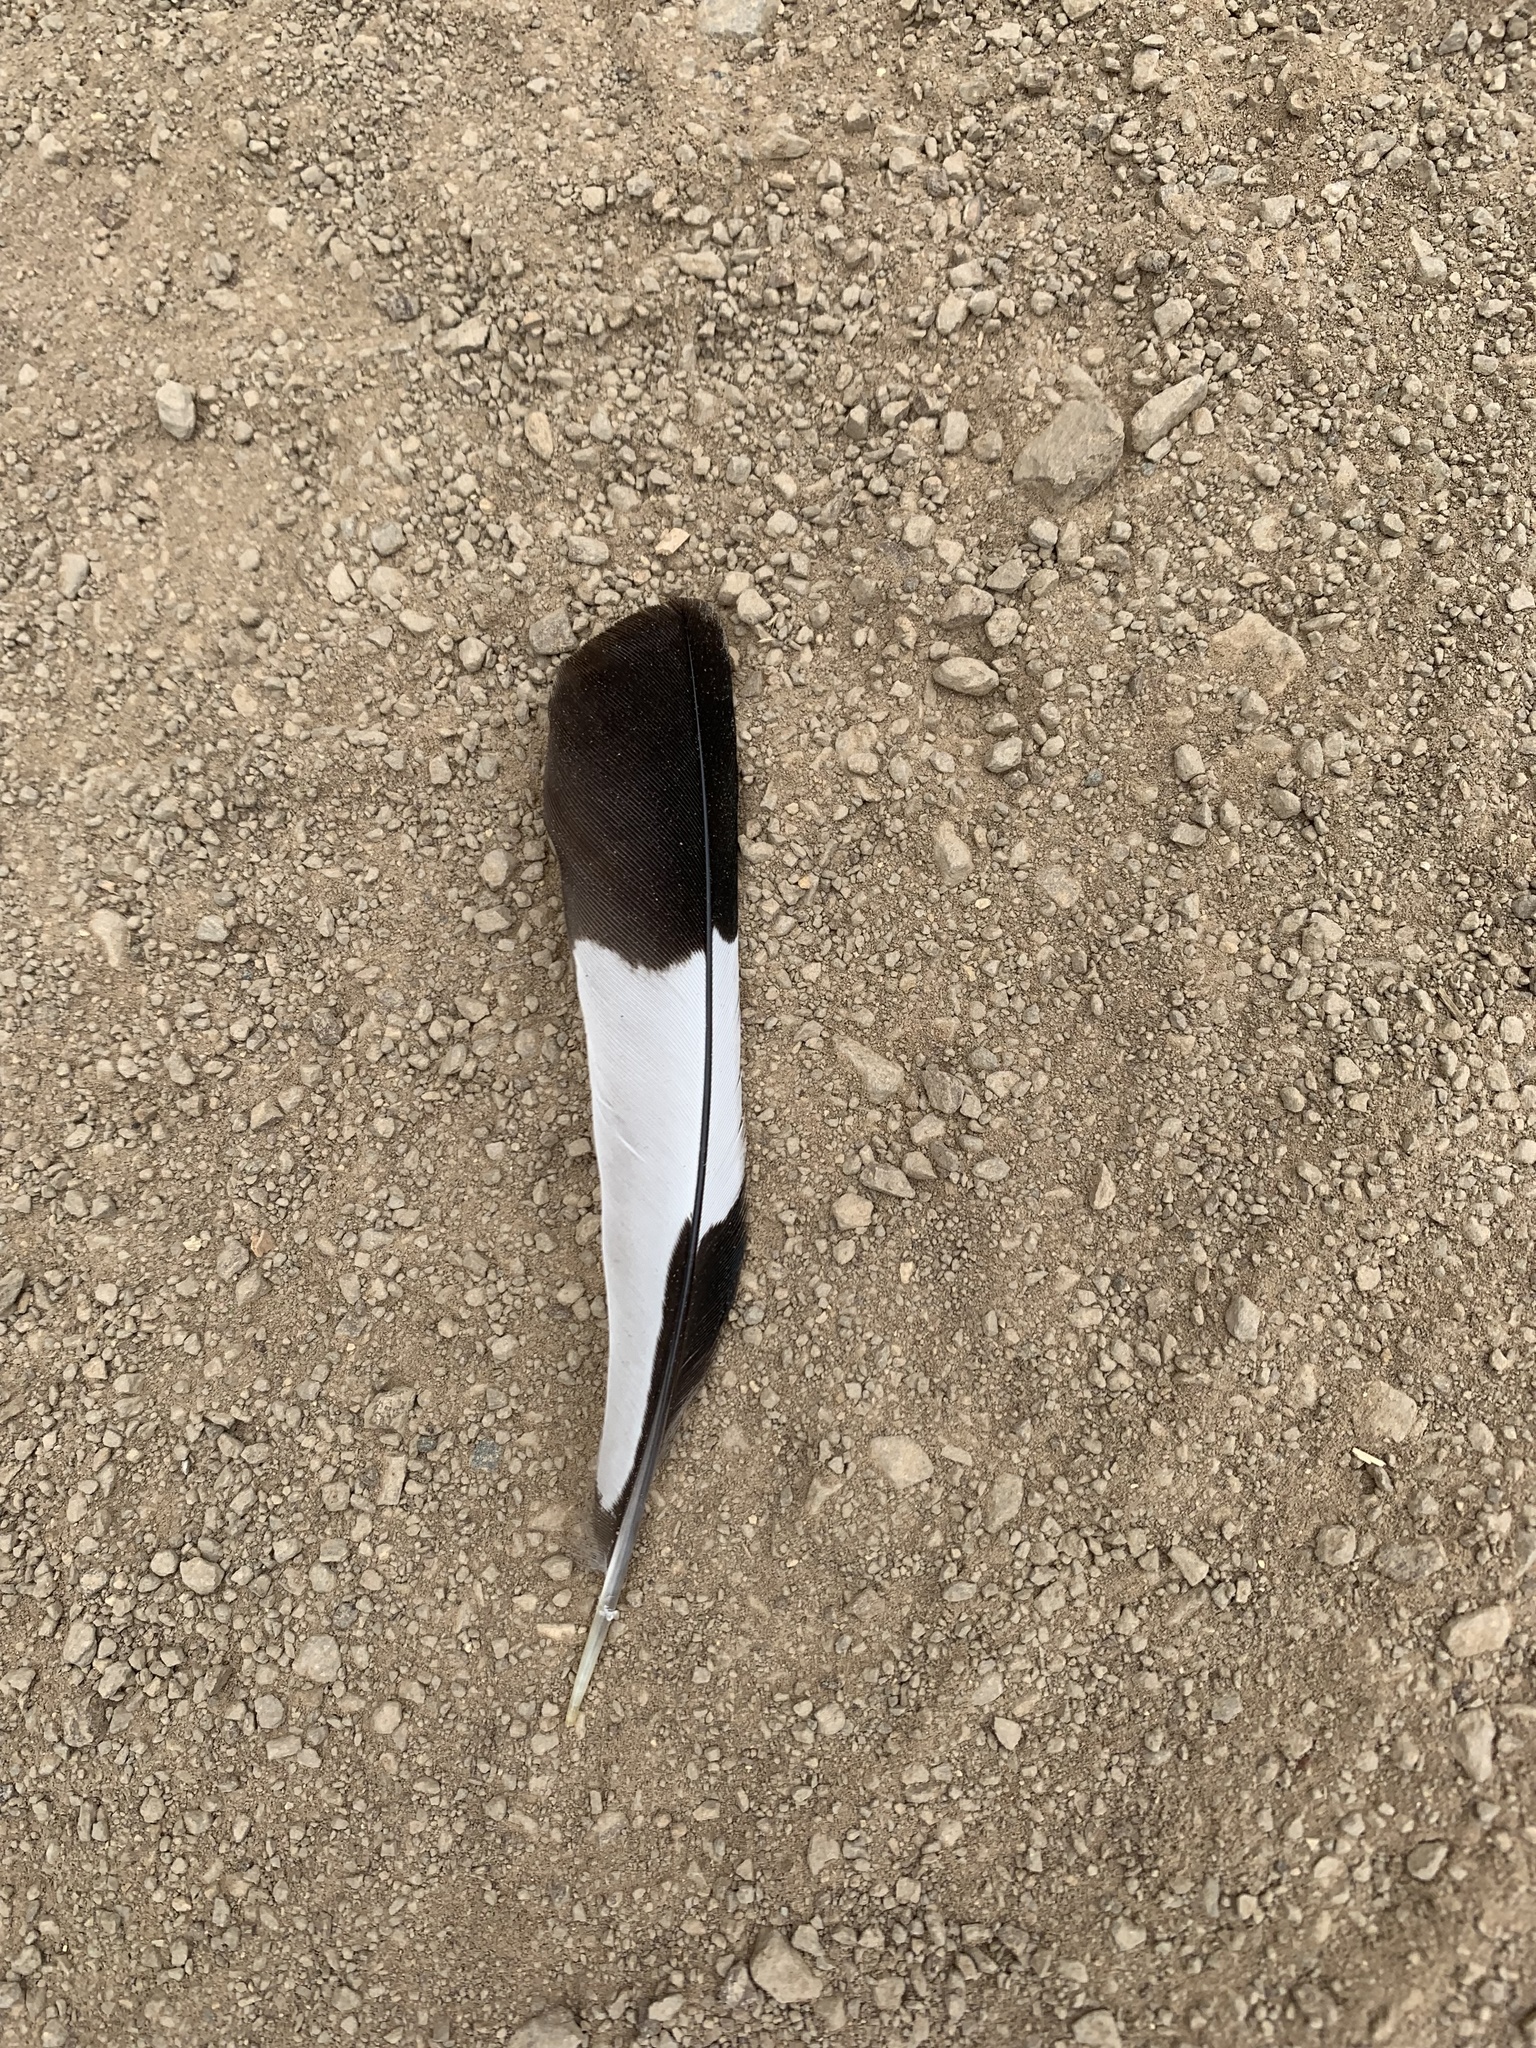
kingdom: Animalia
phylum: Chordata
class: Aves
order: Piciformes
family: Picidae
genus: Melanerpes
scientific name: Melanerpes formicivorus
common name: Acorn woodpecker
